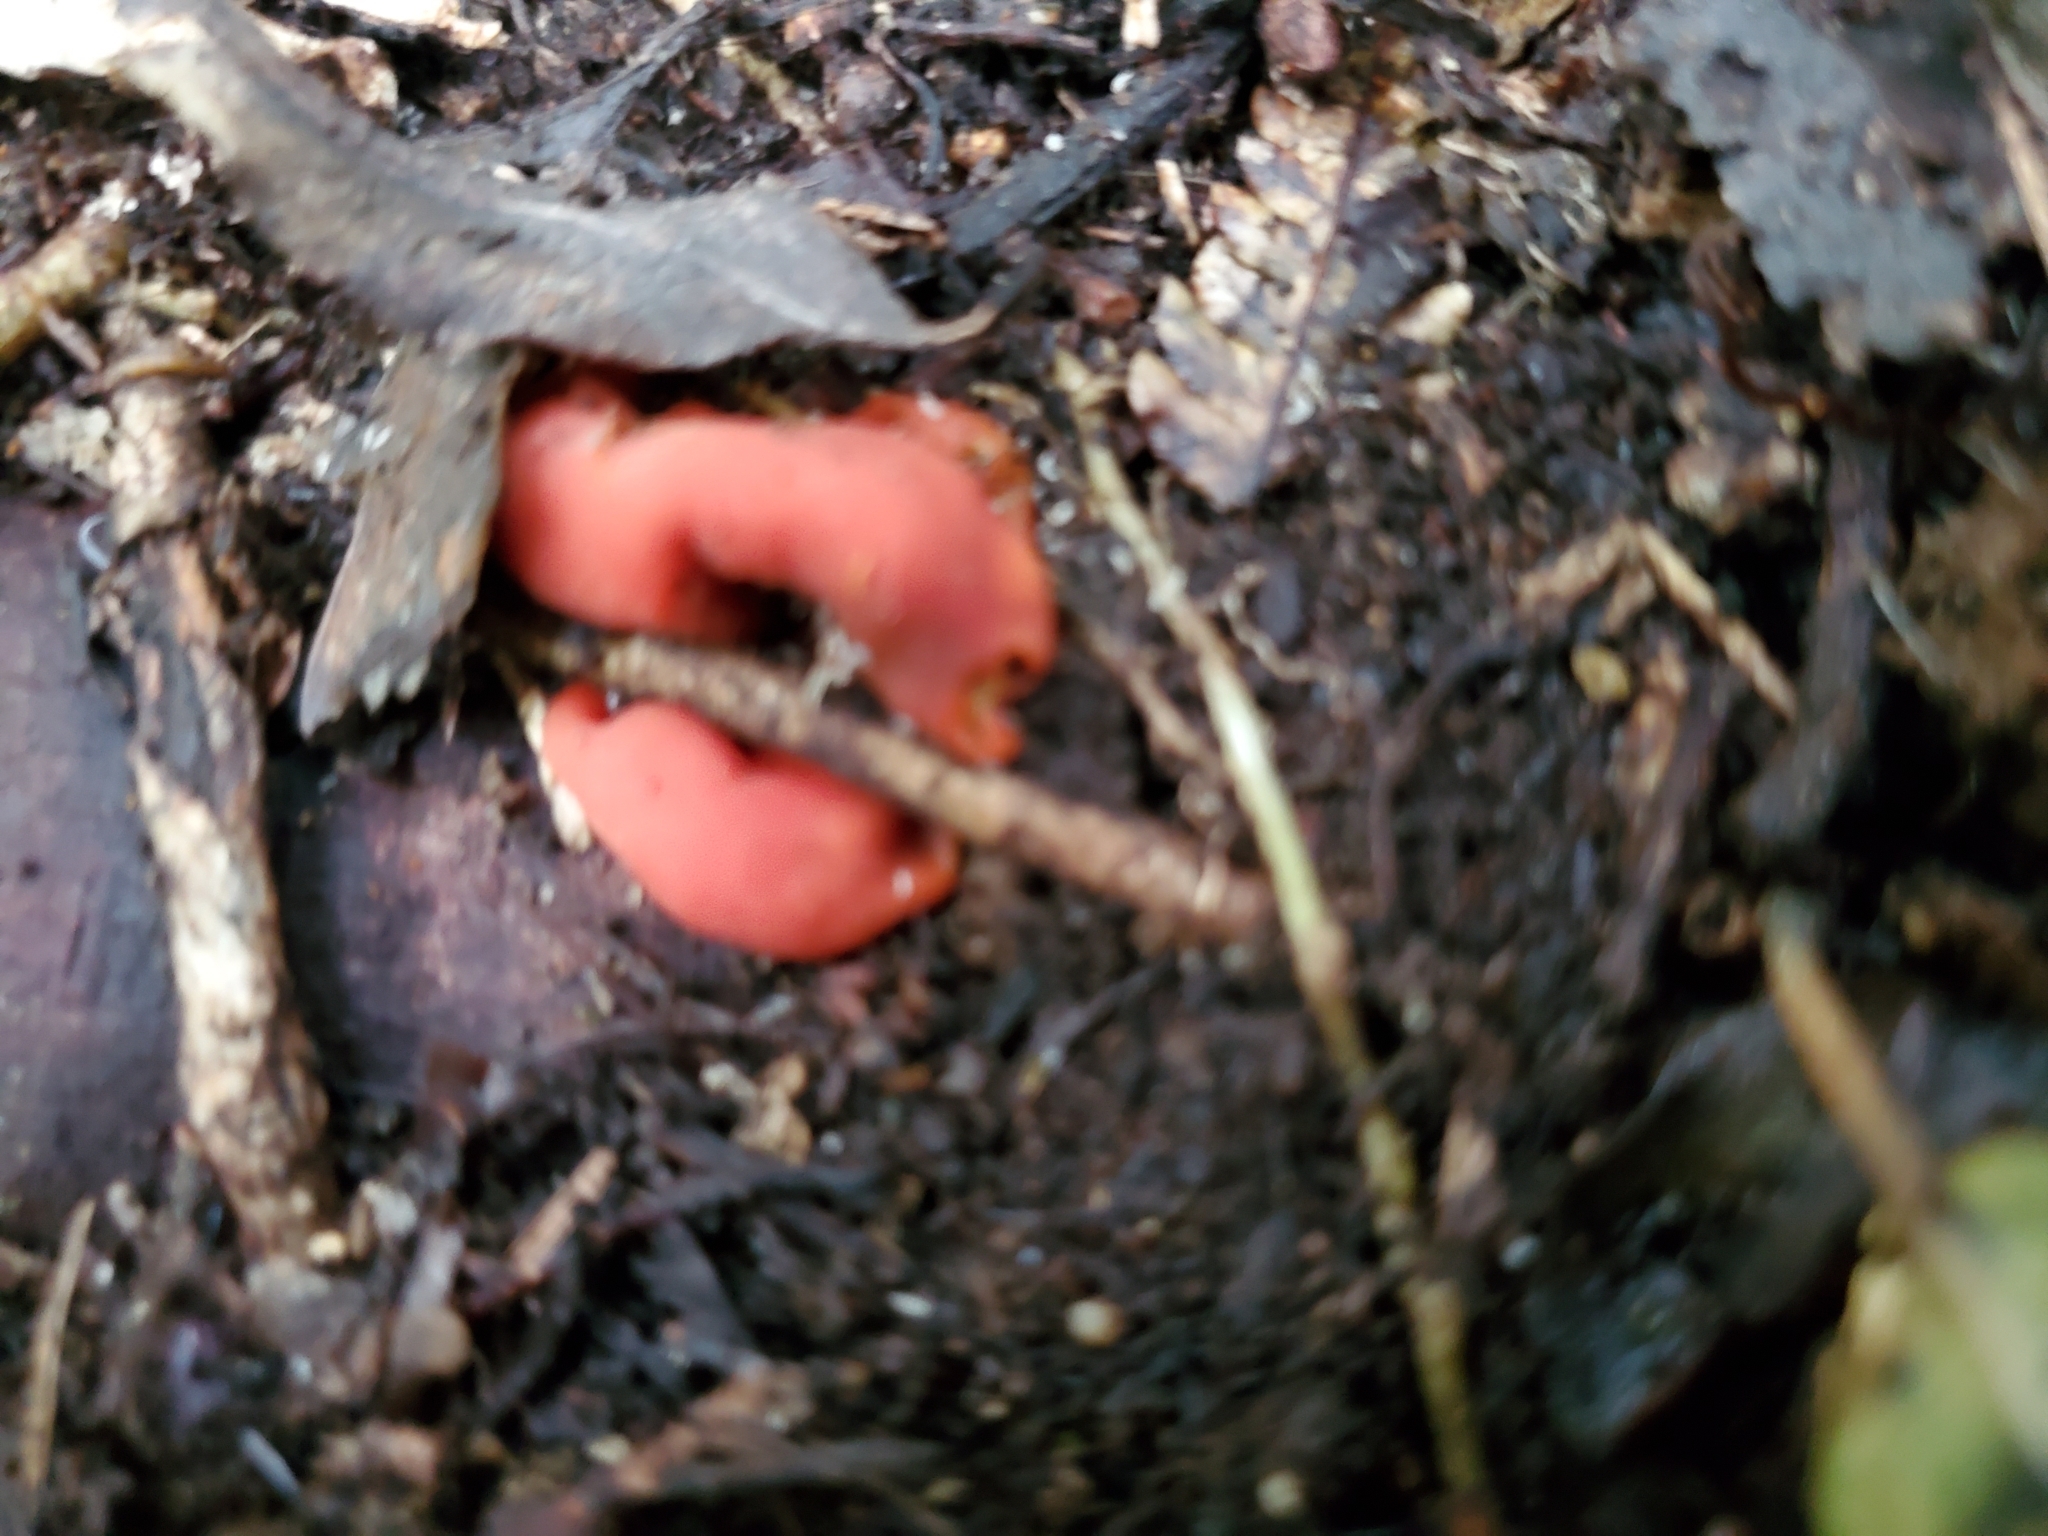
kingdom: Fungi
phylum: Ascomycota
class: Pezizomycetes
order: Pezizales
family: Pyronemataceae
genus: Paurocotylis
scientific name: Paurocotylis pila
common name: Scarlet berry truffle
